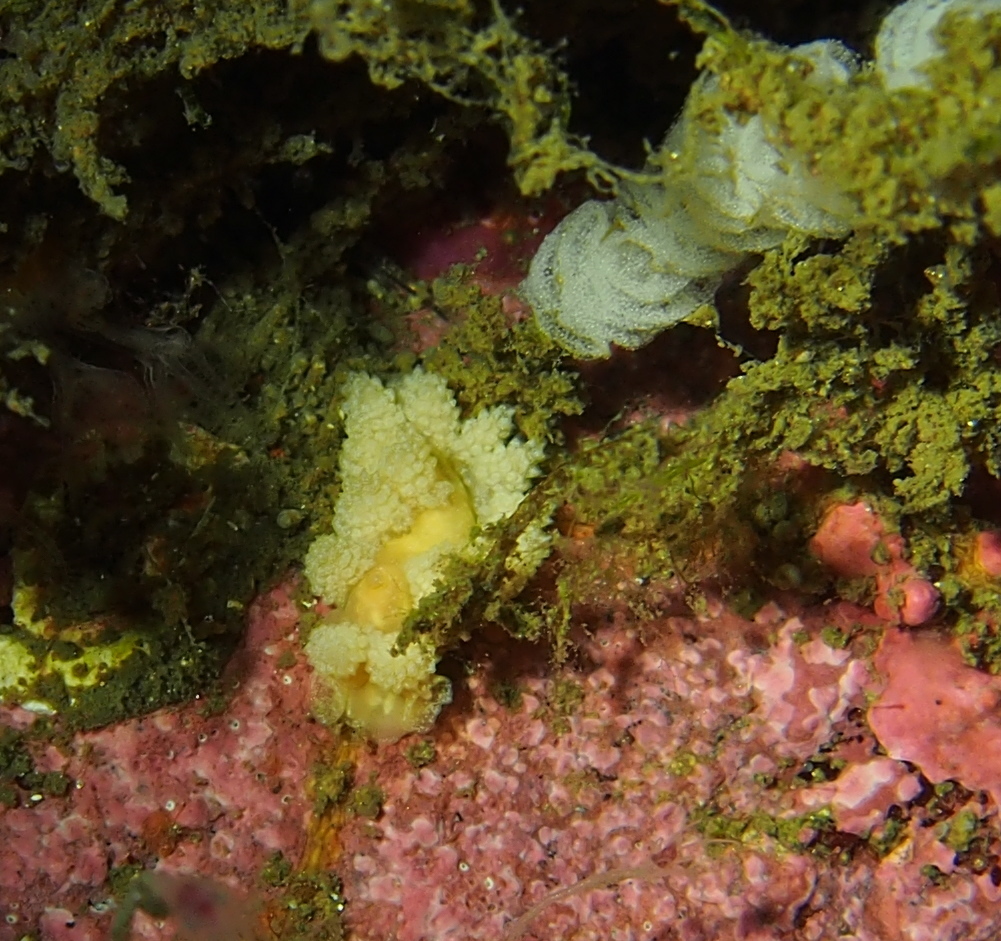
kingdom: Animalia
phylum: Mollusca
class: Gastropoda
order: Nudibranchia
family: Dotidae
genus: Doto
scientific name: Doto fragilis
